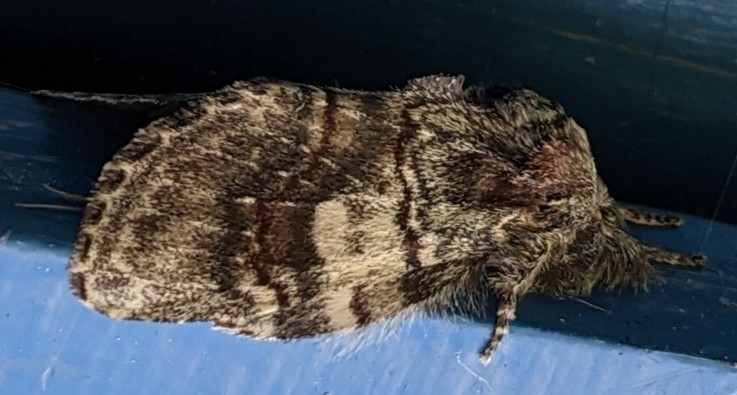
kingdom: Animalia
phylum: Arthropoda
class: Insecta
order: Lepidoptera
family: Notodontidae
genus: Peridea
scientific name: Peridea ferruginea
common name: Chocolate prominent
